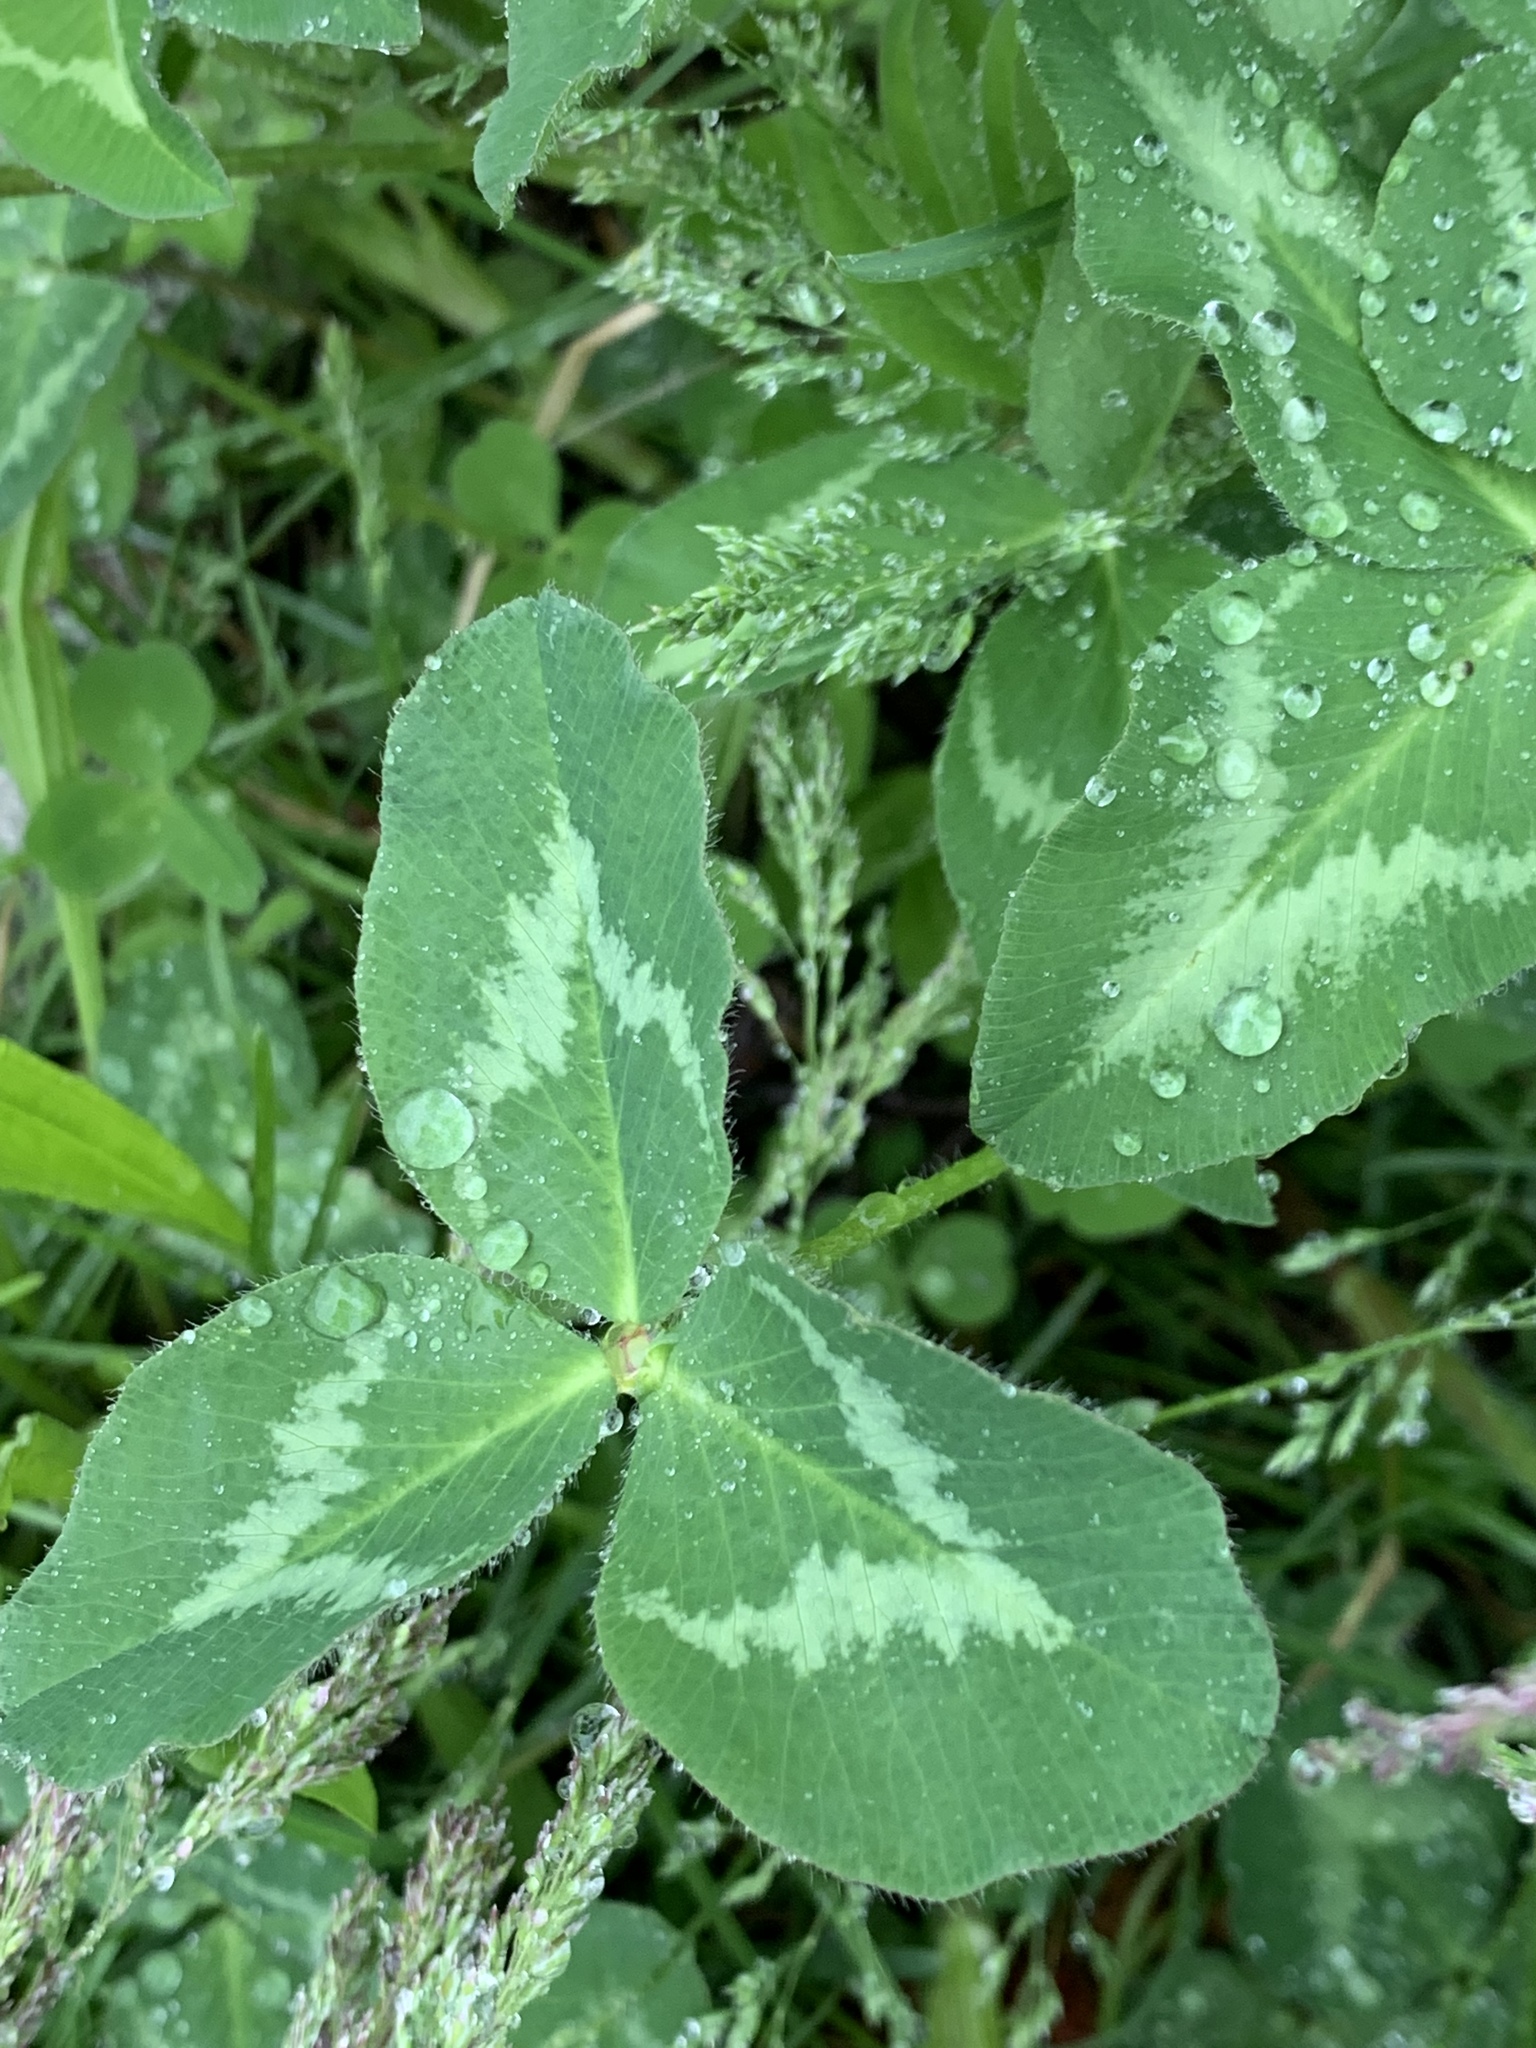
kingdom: Plantae
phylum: Tracheophyta
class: Magnoliopsida
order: Fabales
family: Fabaceae
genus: Trifolium
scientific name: Trifolium pratense
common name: Red clover
